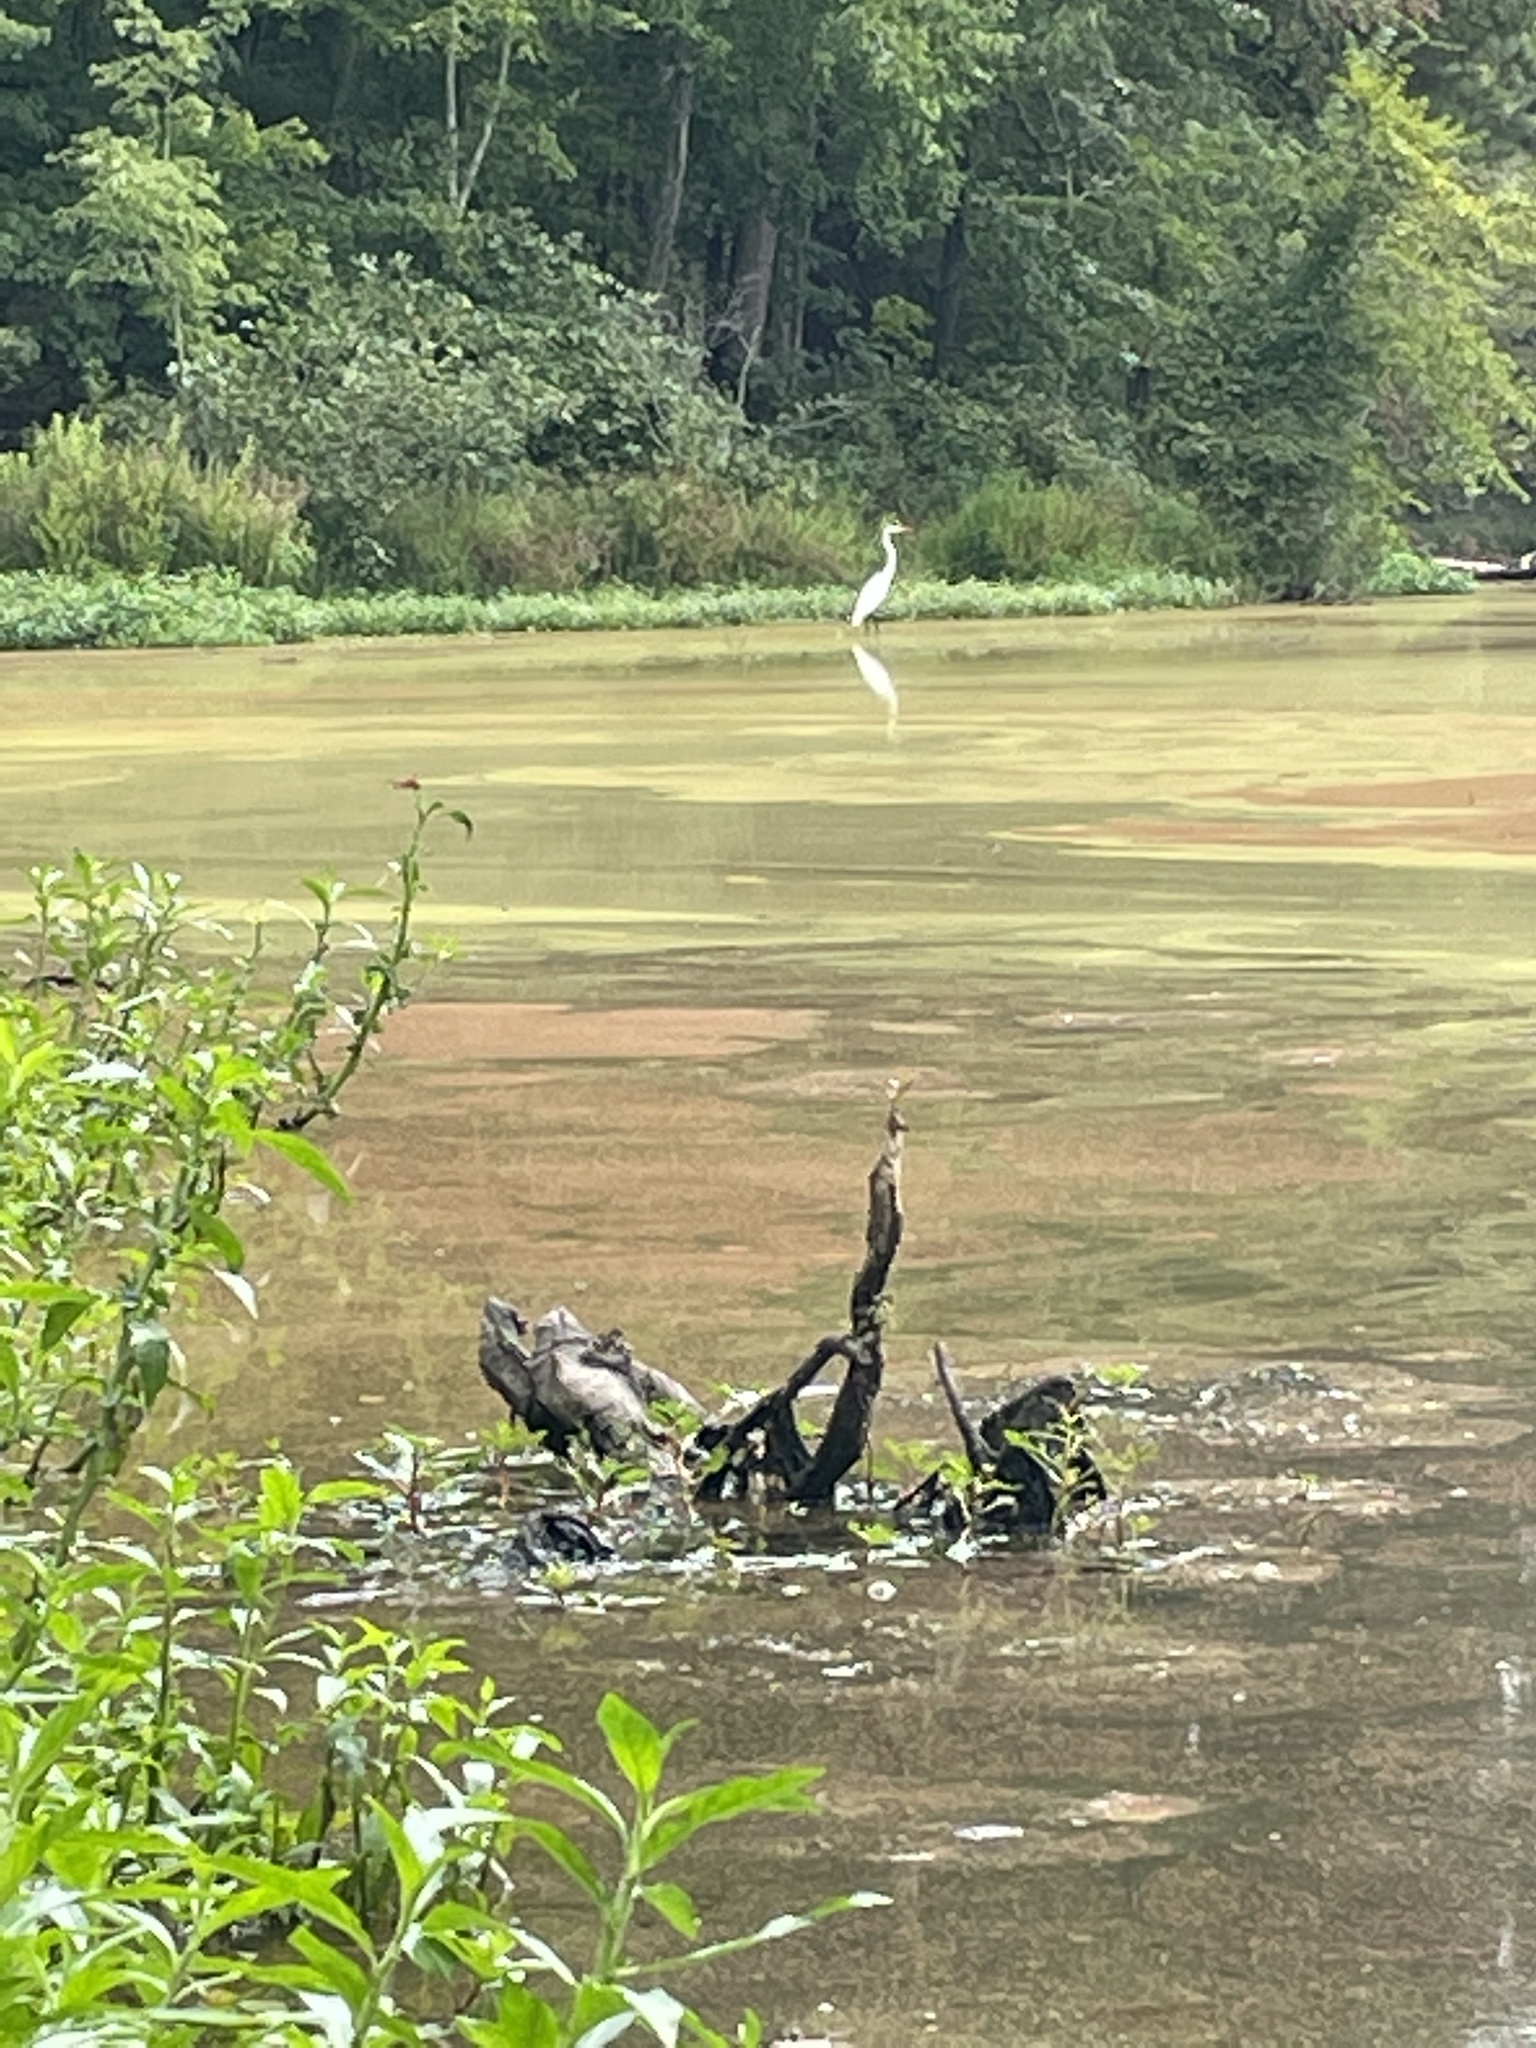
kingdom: Animalia
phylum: Chordata
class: Aves
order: Pelecaniformes
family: Ardeidae
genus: Ardea
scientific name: Ardea alba
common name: Great egret
